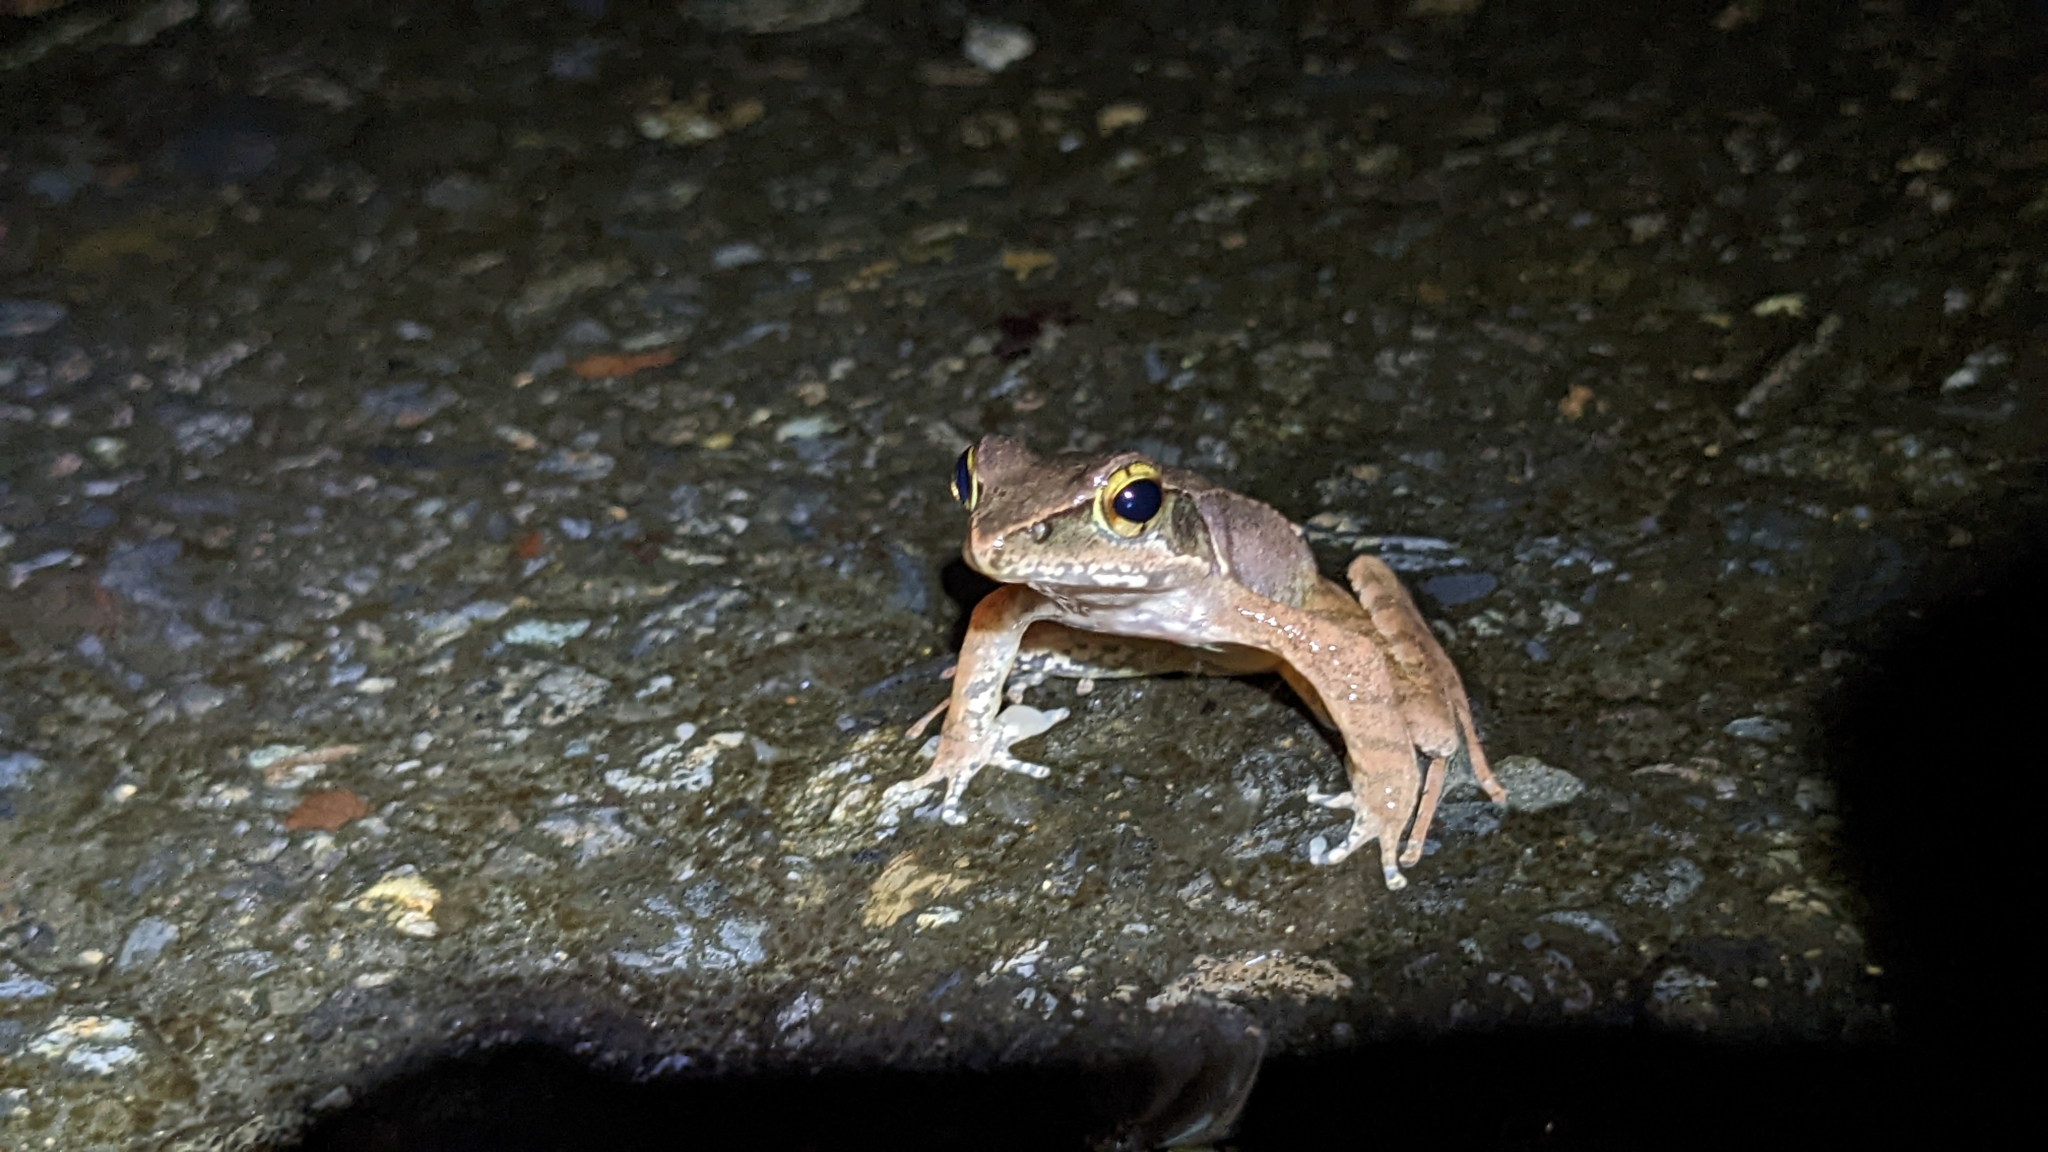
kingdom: Animalia
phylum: Chordata
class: Amphibia
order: Anura
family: Ranidae
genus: Rana
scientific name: Rana sauteri
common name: Kanshirei village frog
